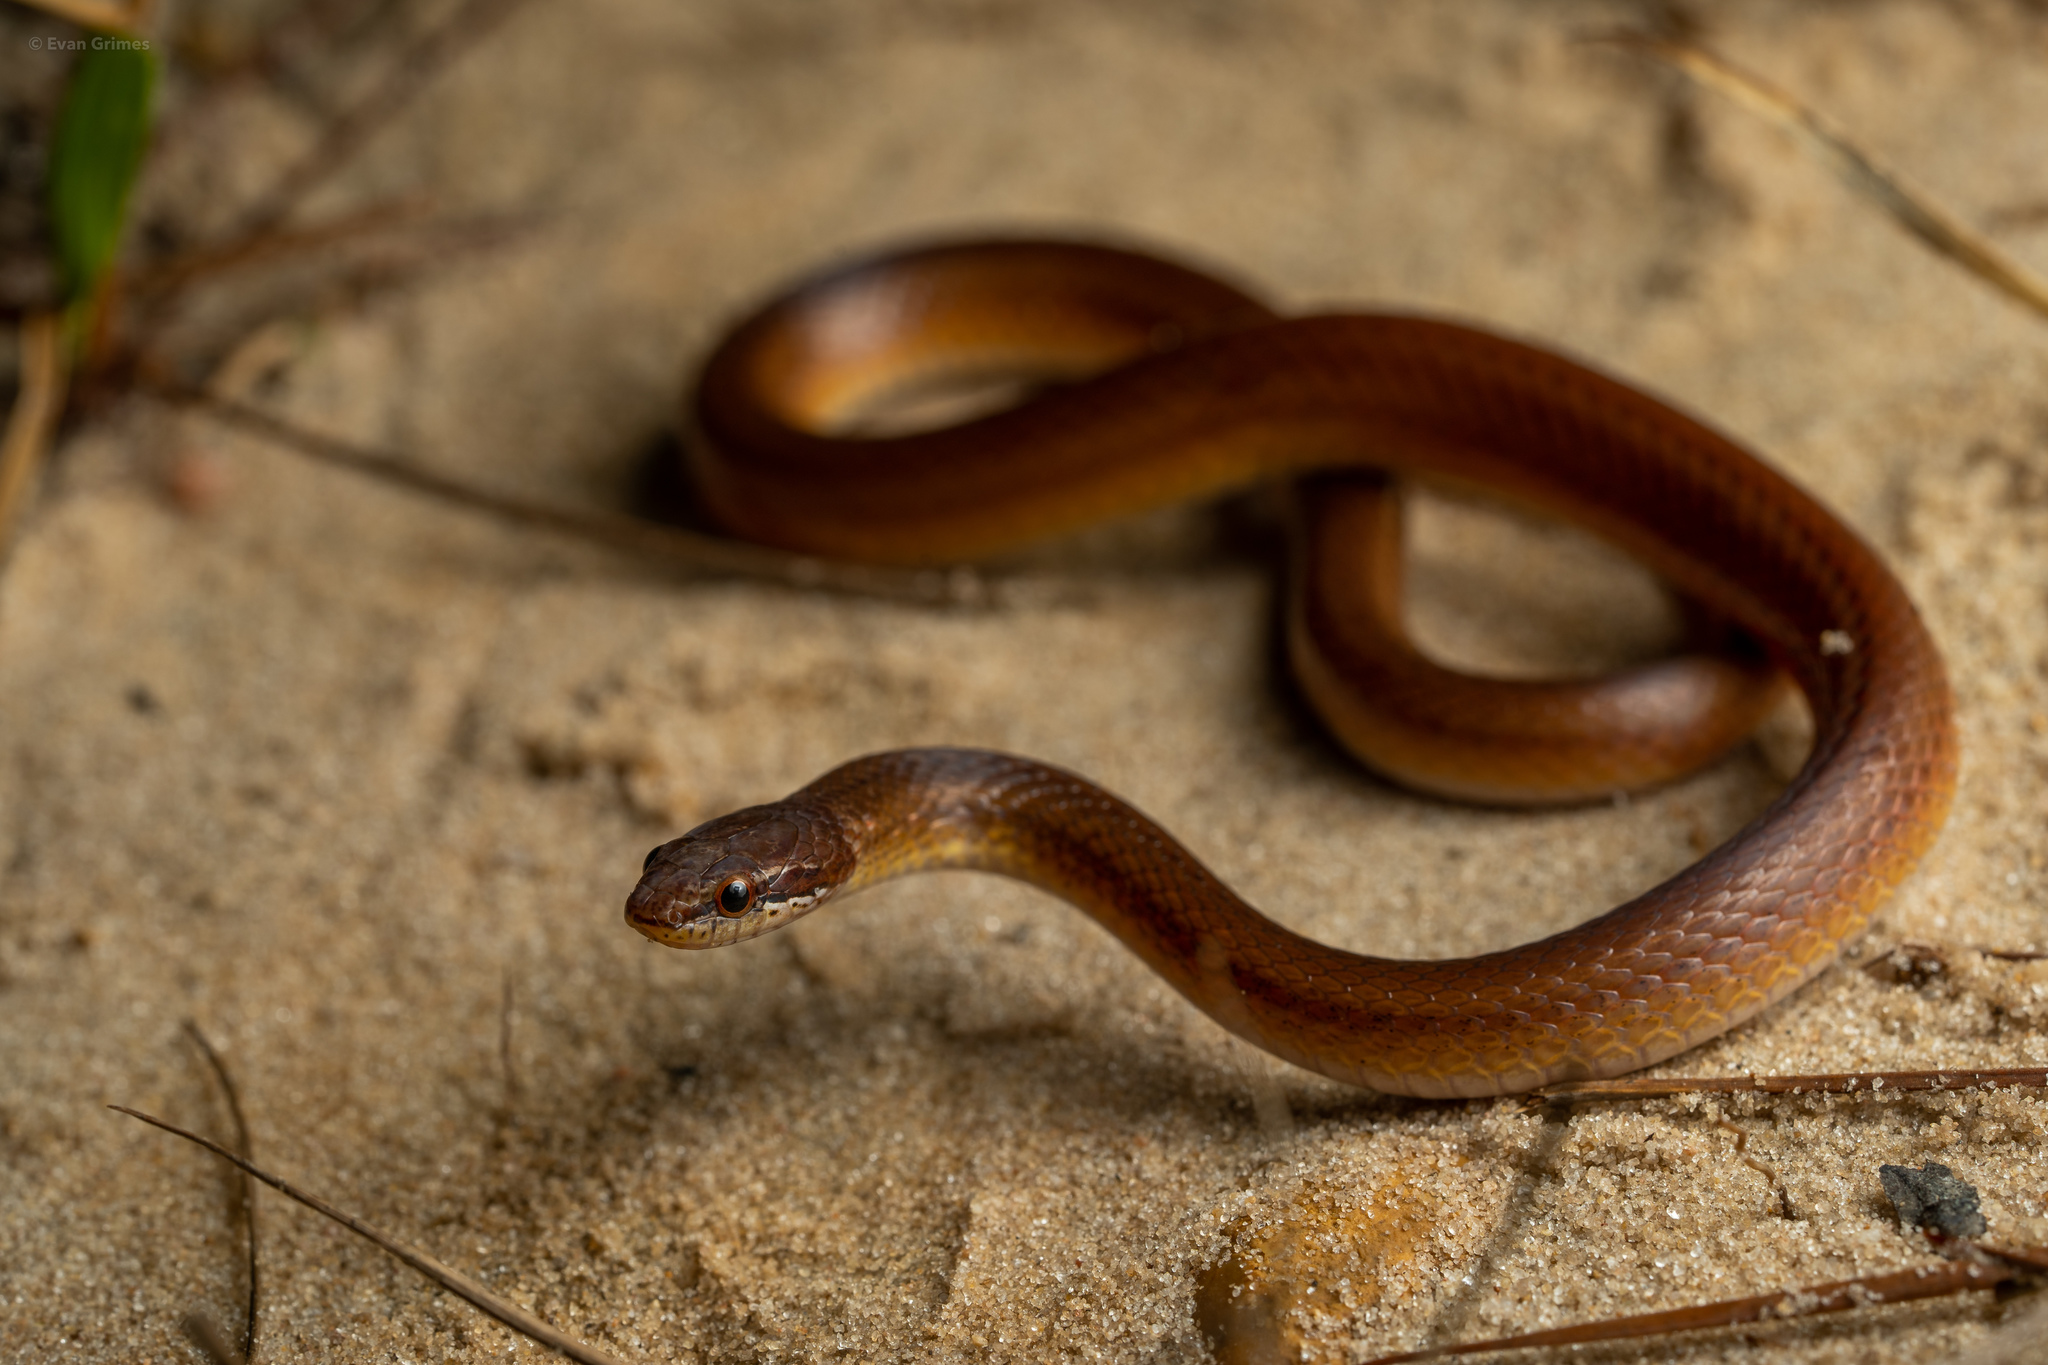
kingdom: Animalia
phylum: Chordata
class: Squamata
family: Colubridae
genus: Rhadinaea
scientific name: Rhadinaea flavilata
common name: Pine woods littersnake
